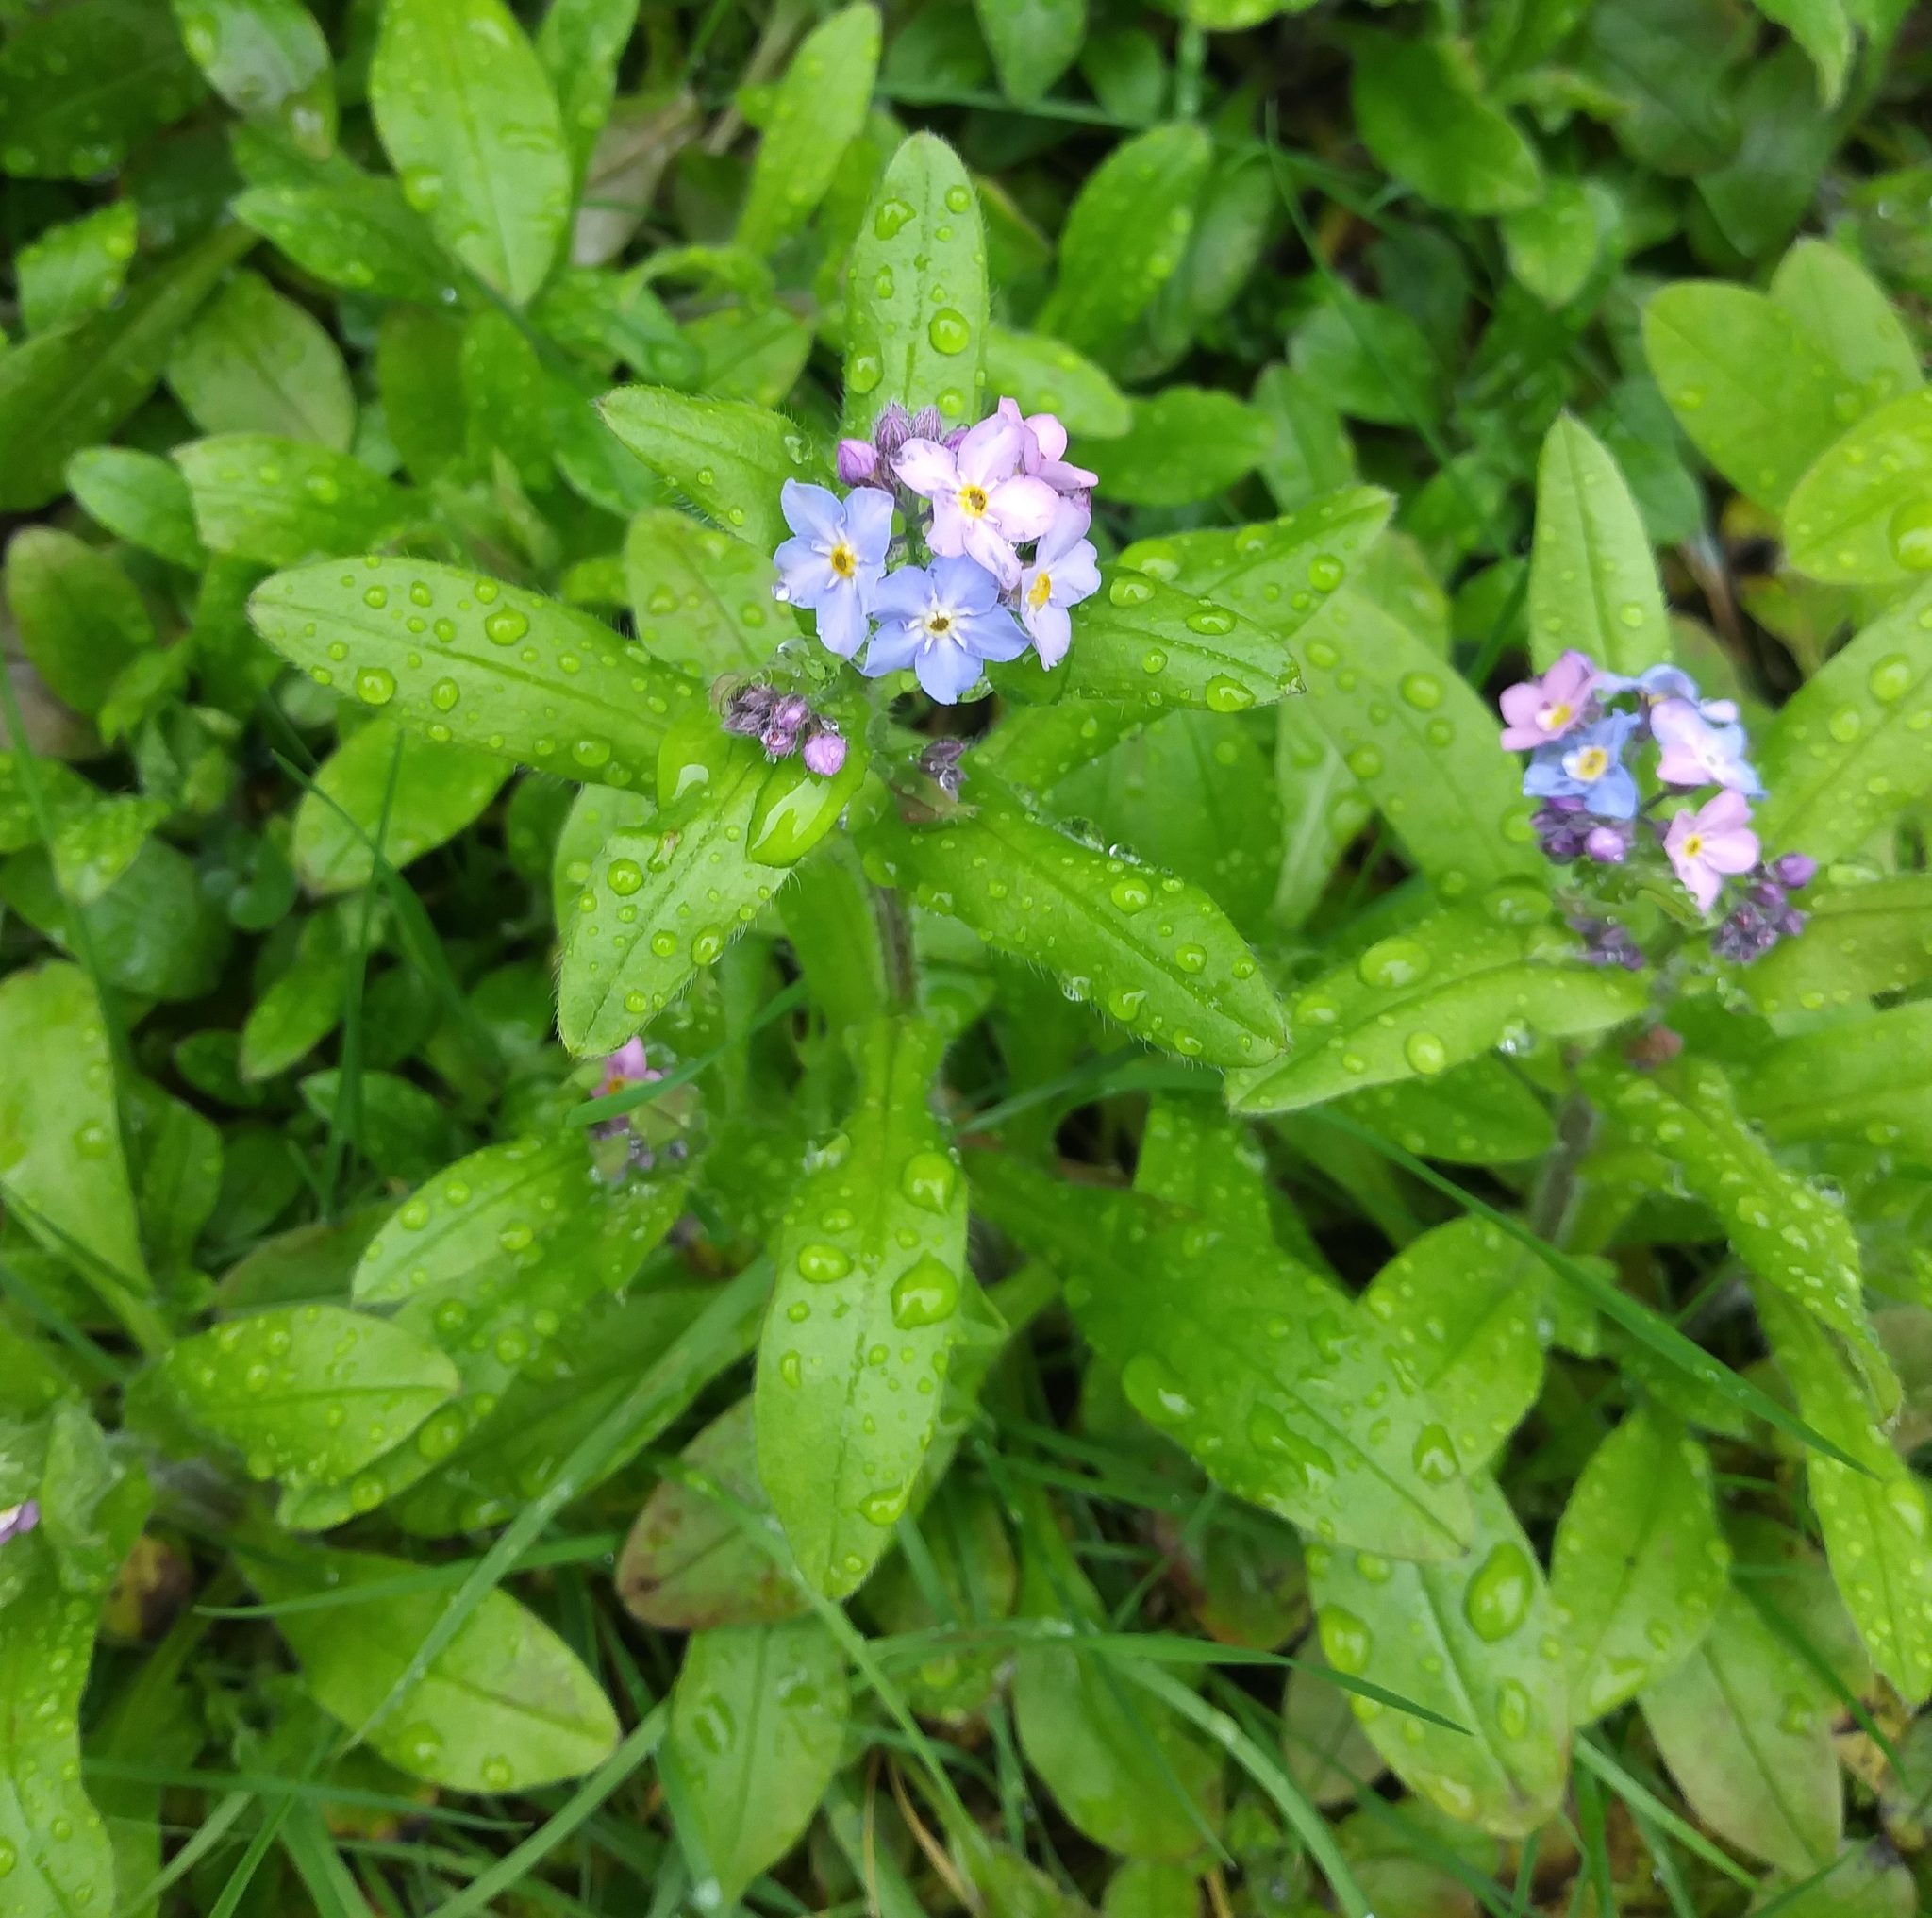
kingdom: Plantae
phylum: Tracheophyta
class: Magnoliopsida
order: Boraginales
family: Boraginaceae
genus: Myosotis
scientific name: Myosotis sylvatica
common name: Wood forget-me-not
